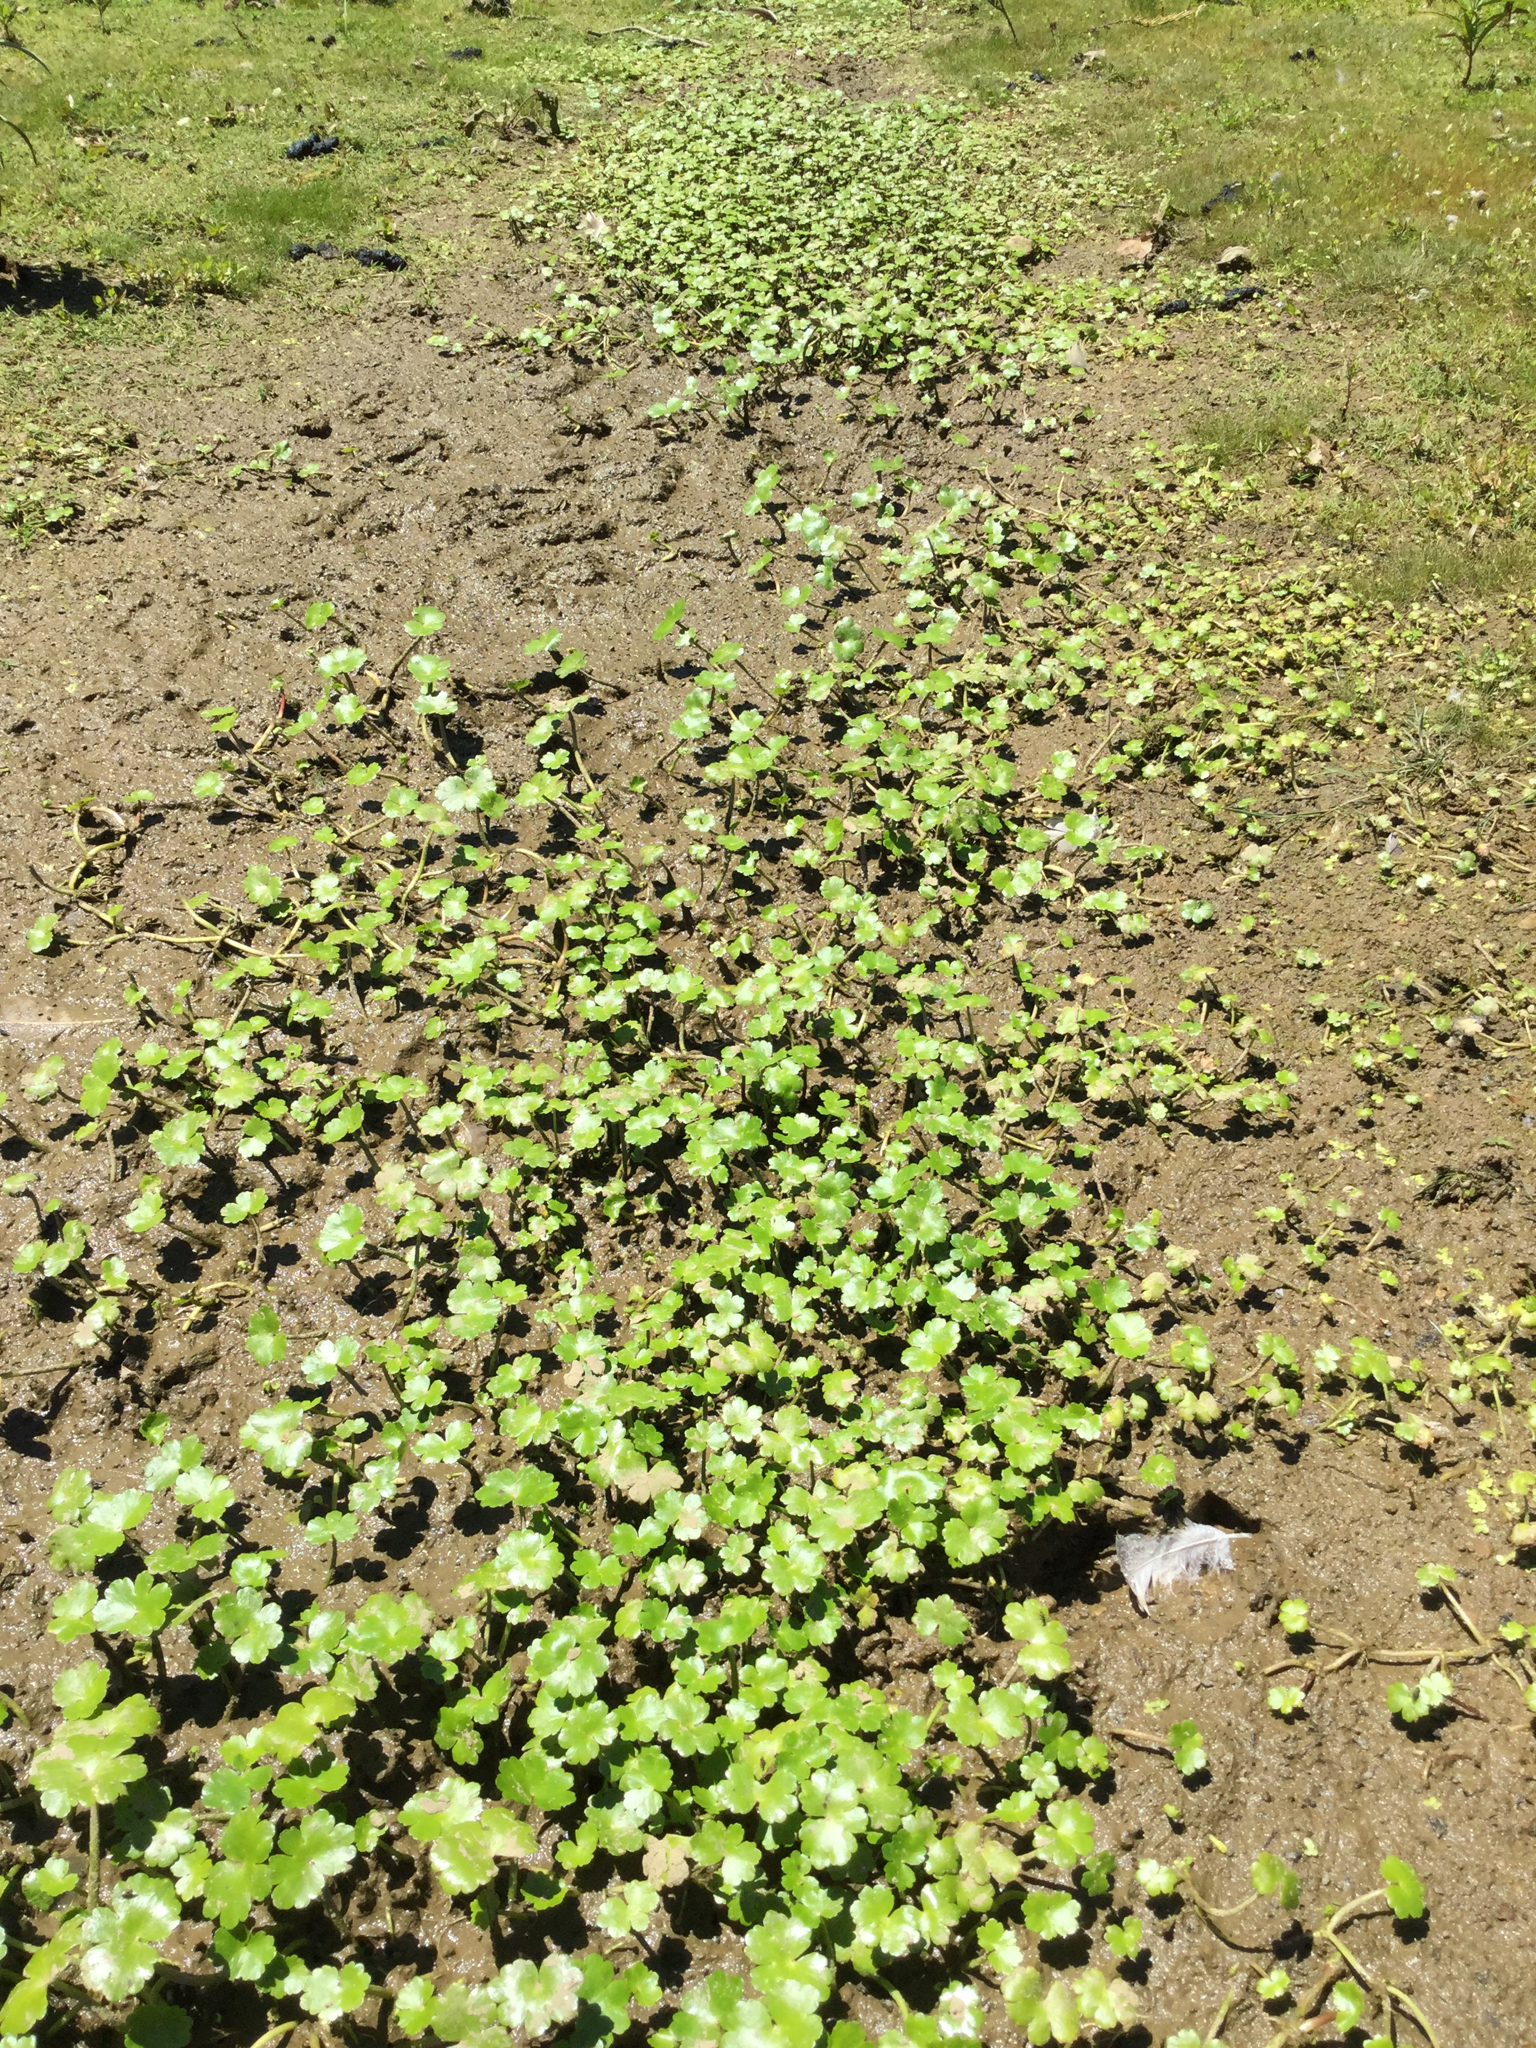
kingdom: Plantae
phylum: Tracheophyta
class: Magnoliopsida
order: Apiales
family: Araliaceae
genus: Hydrocotyle
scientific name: Hydrocotyle ranunculoides
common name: Floating pennywort
